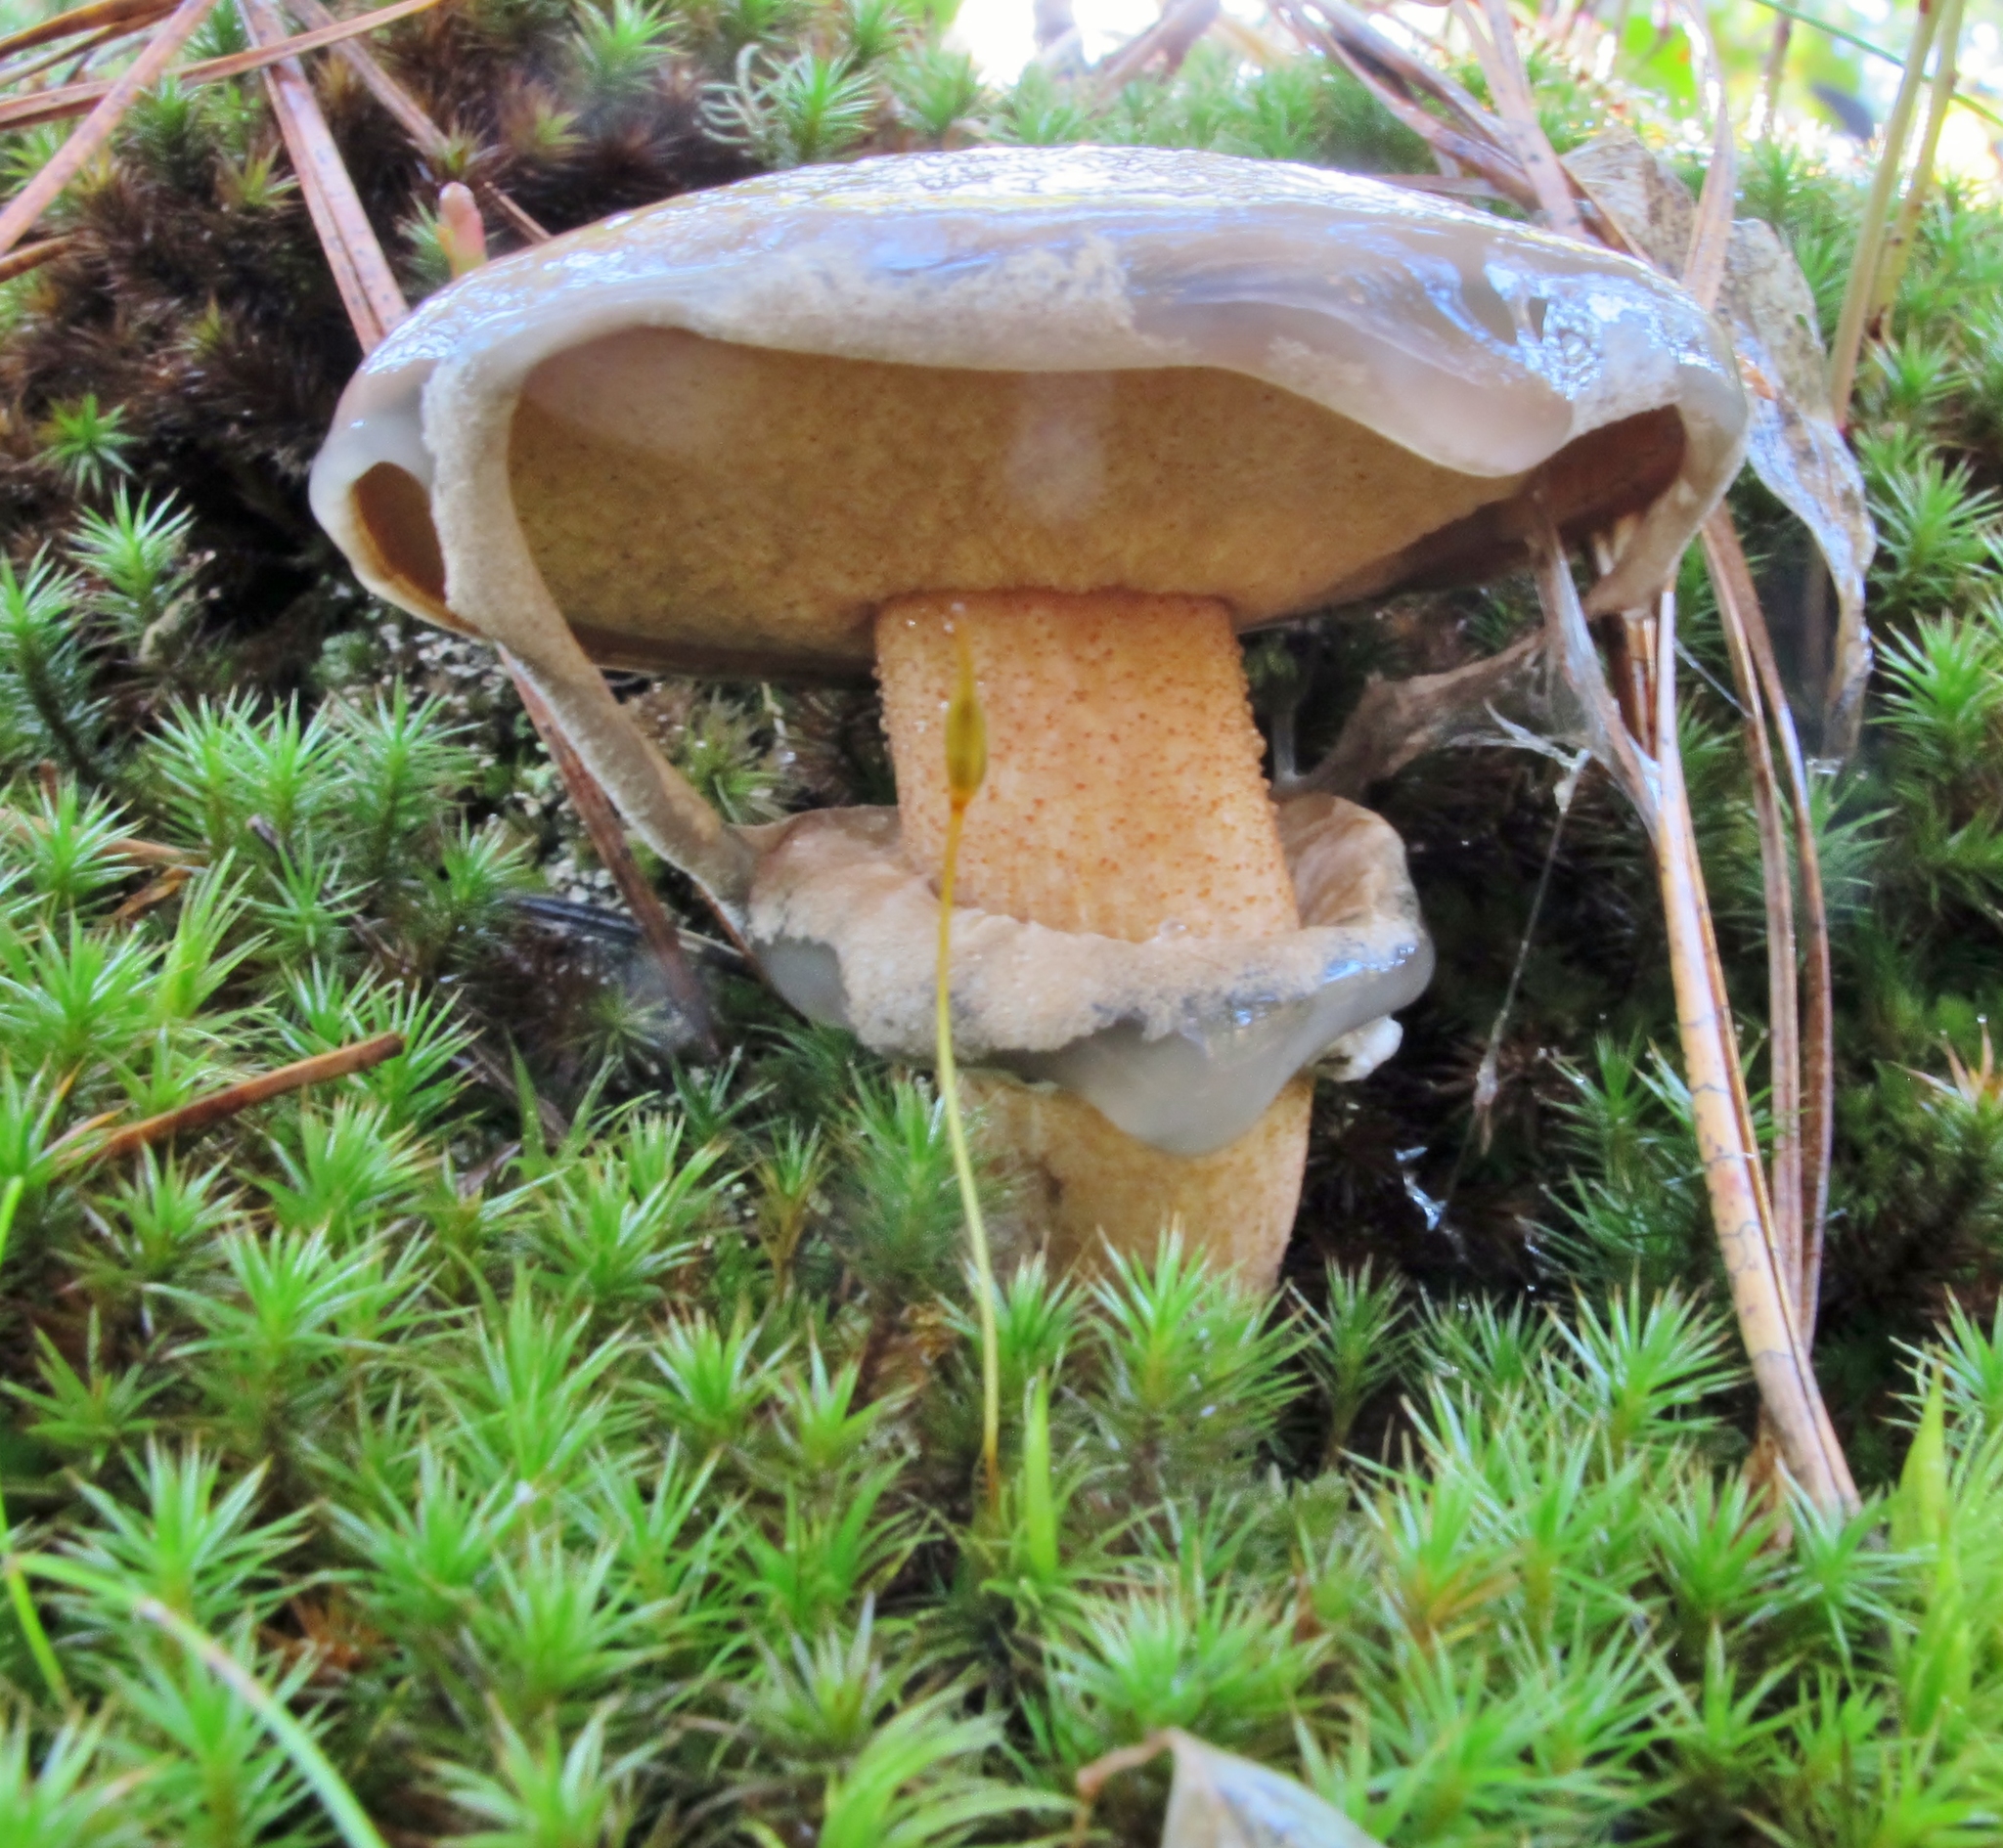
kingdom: Fungi
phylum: Basidiomycota
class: Agaricomycetes
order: Boletales
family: Suillaceae
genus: Suillus
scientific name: Suillus salmonicolor
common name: Slippery jill
